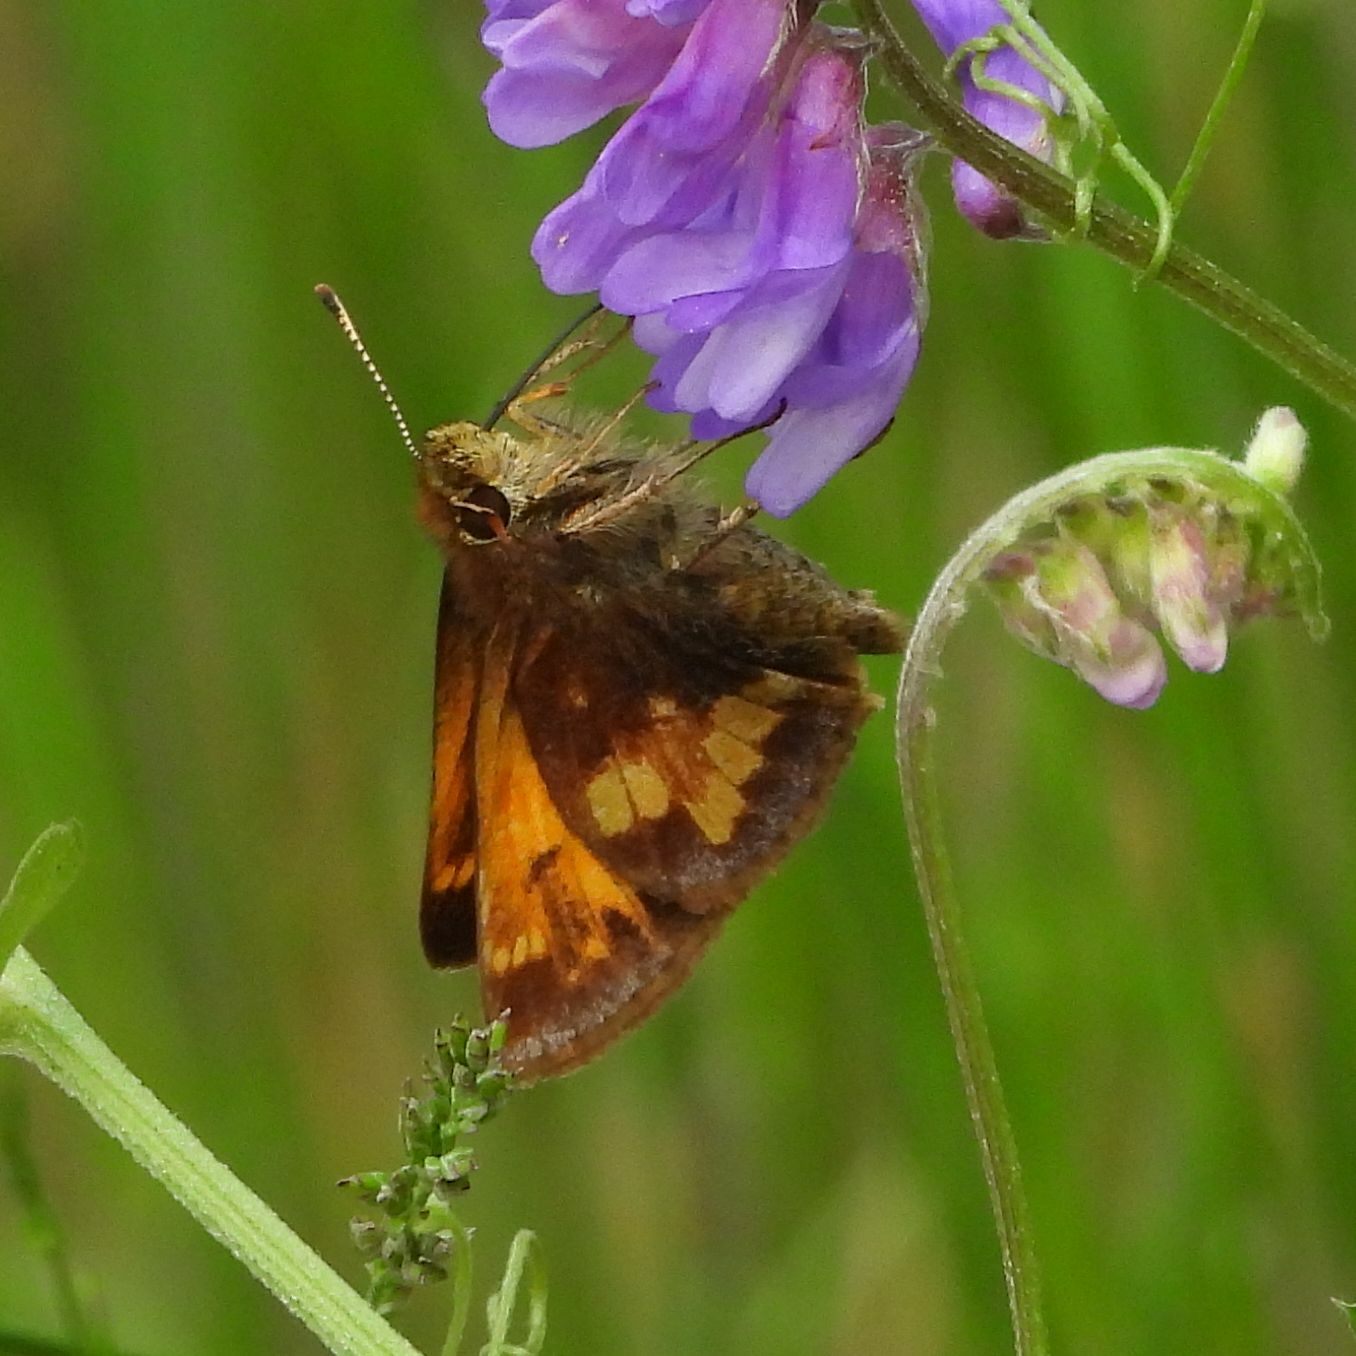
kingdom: Animalia
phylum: Arthropoda
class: Insecta
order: Lepidoptera
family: Hesperiidae
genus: Lon
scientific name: Lon hobomok
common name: Hobomok skipper
